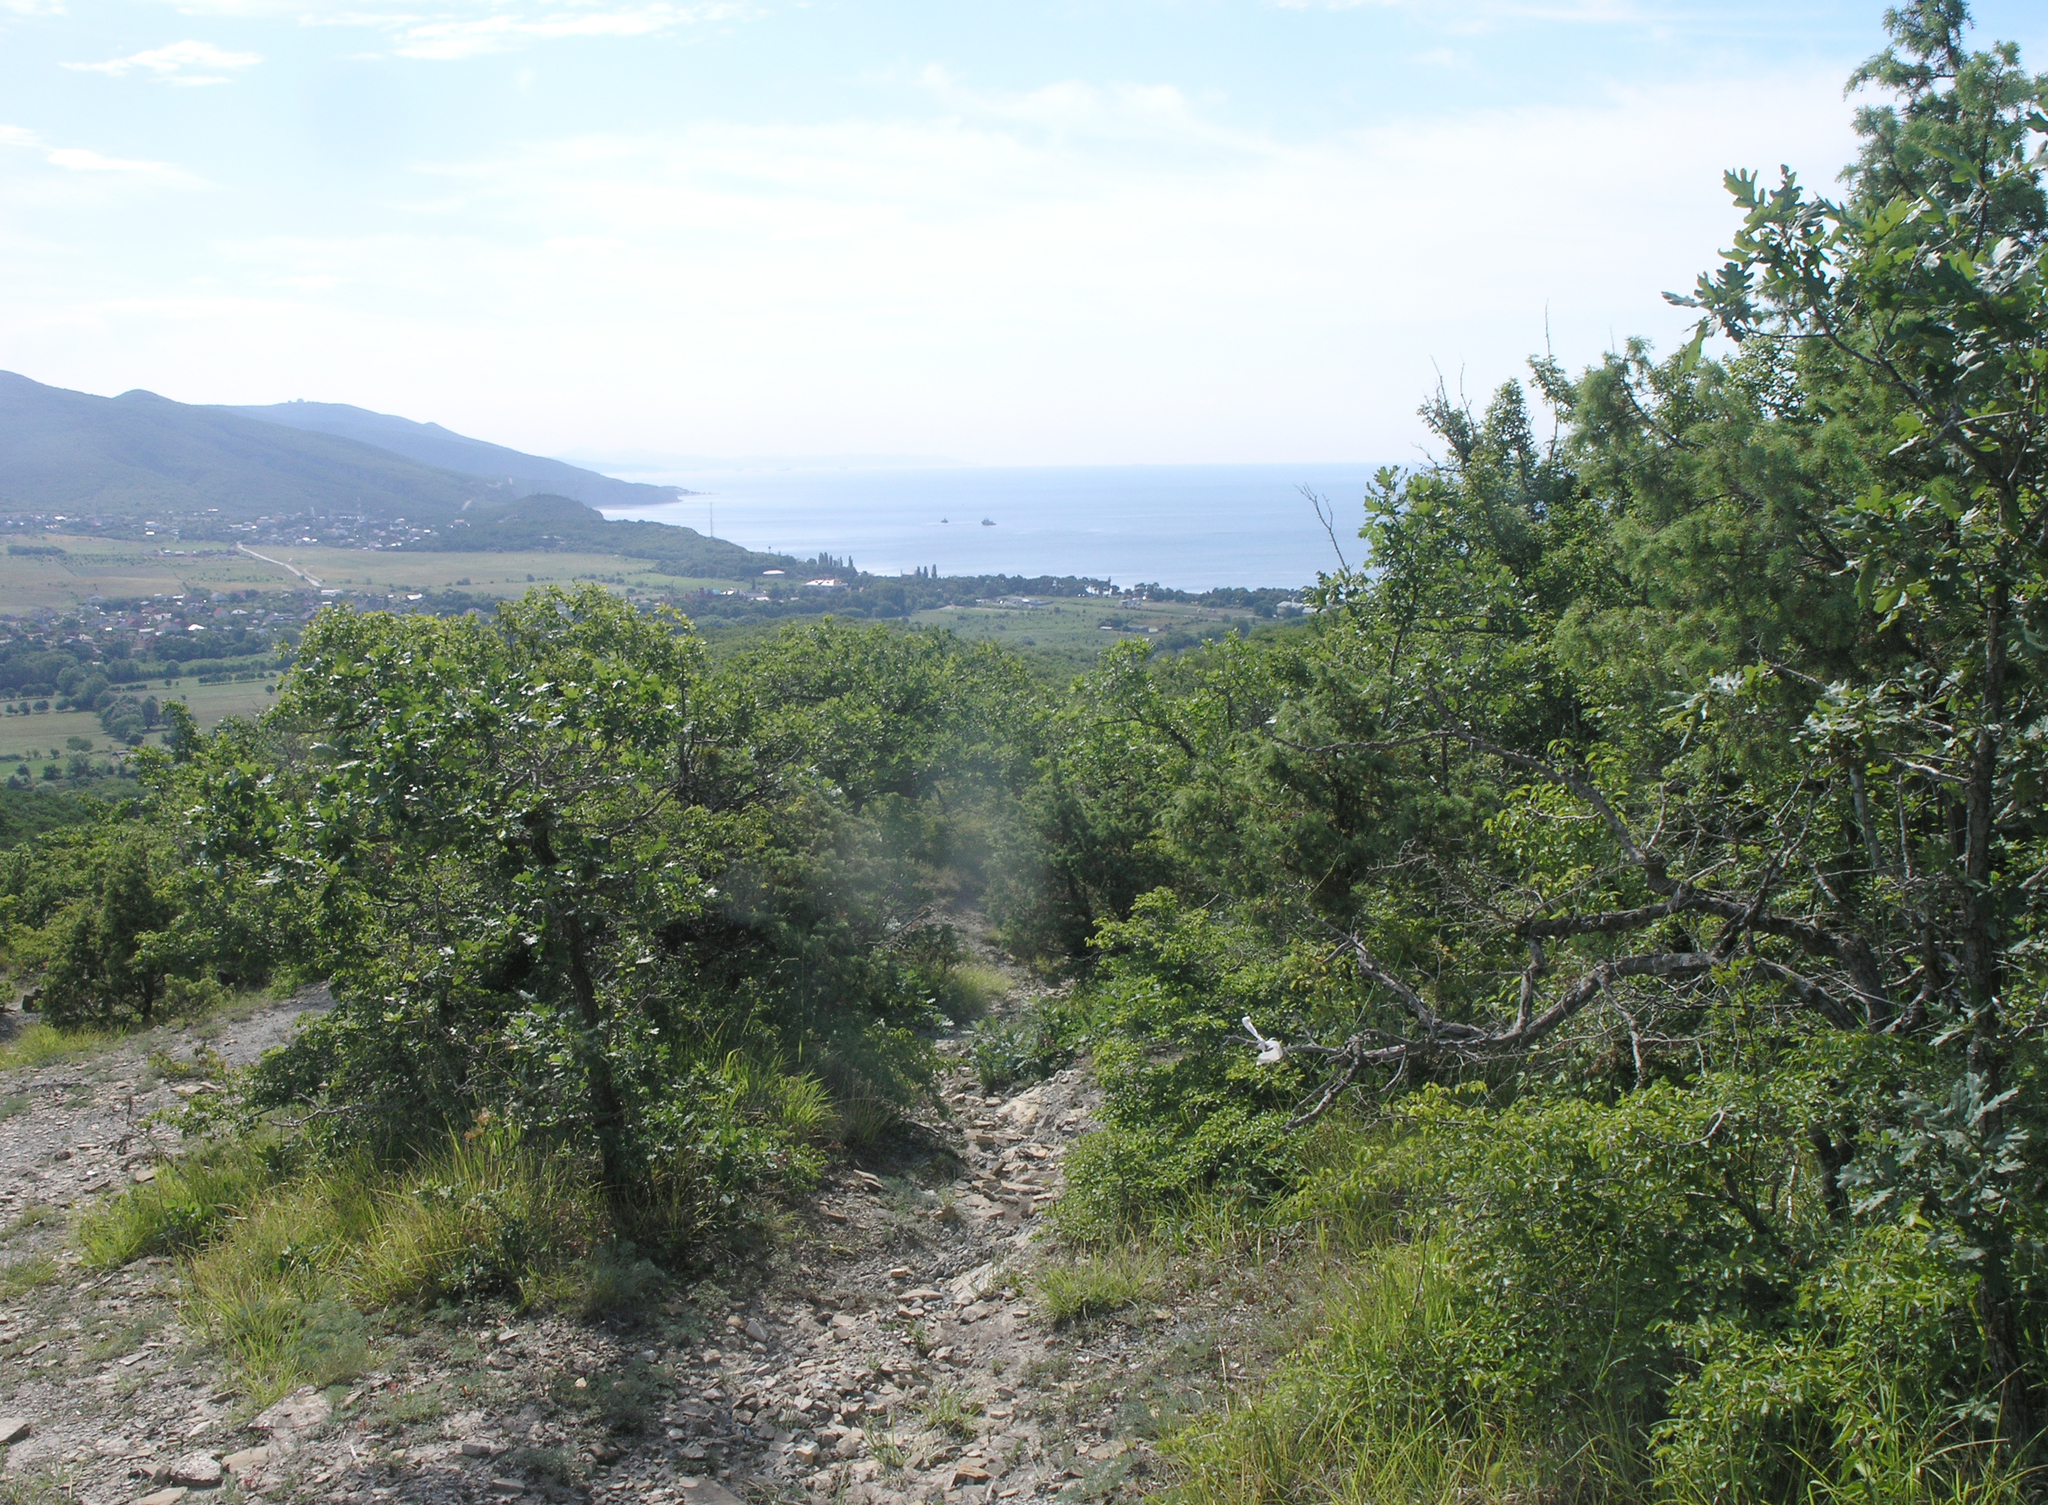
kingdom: Plantae
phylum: Tracheophyta
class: Magnoliopsida
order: Fagales
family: Fagaceae
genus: Quercus
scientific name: Quercus pubescens
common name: Downy oak
